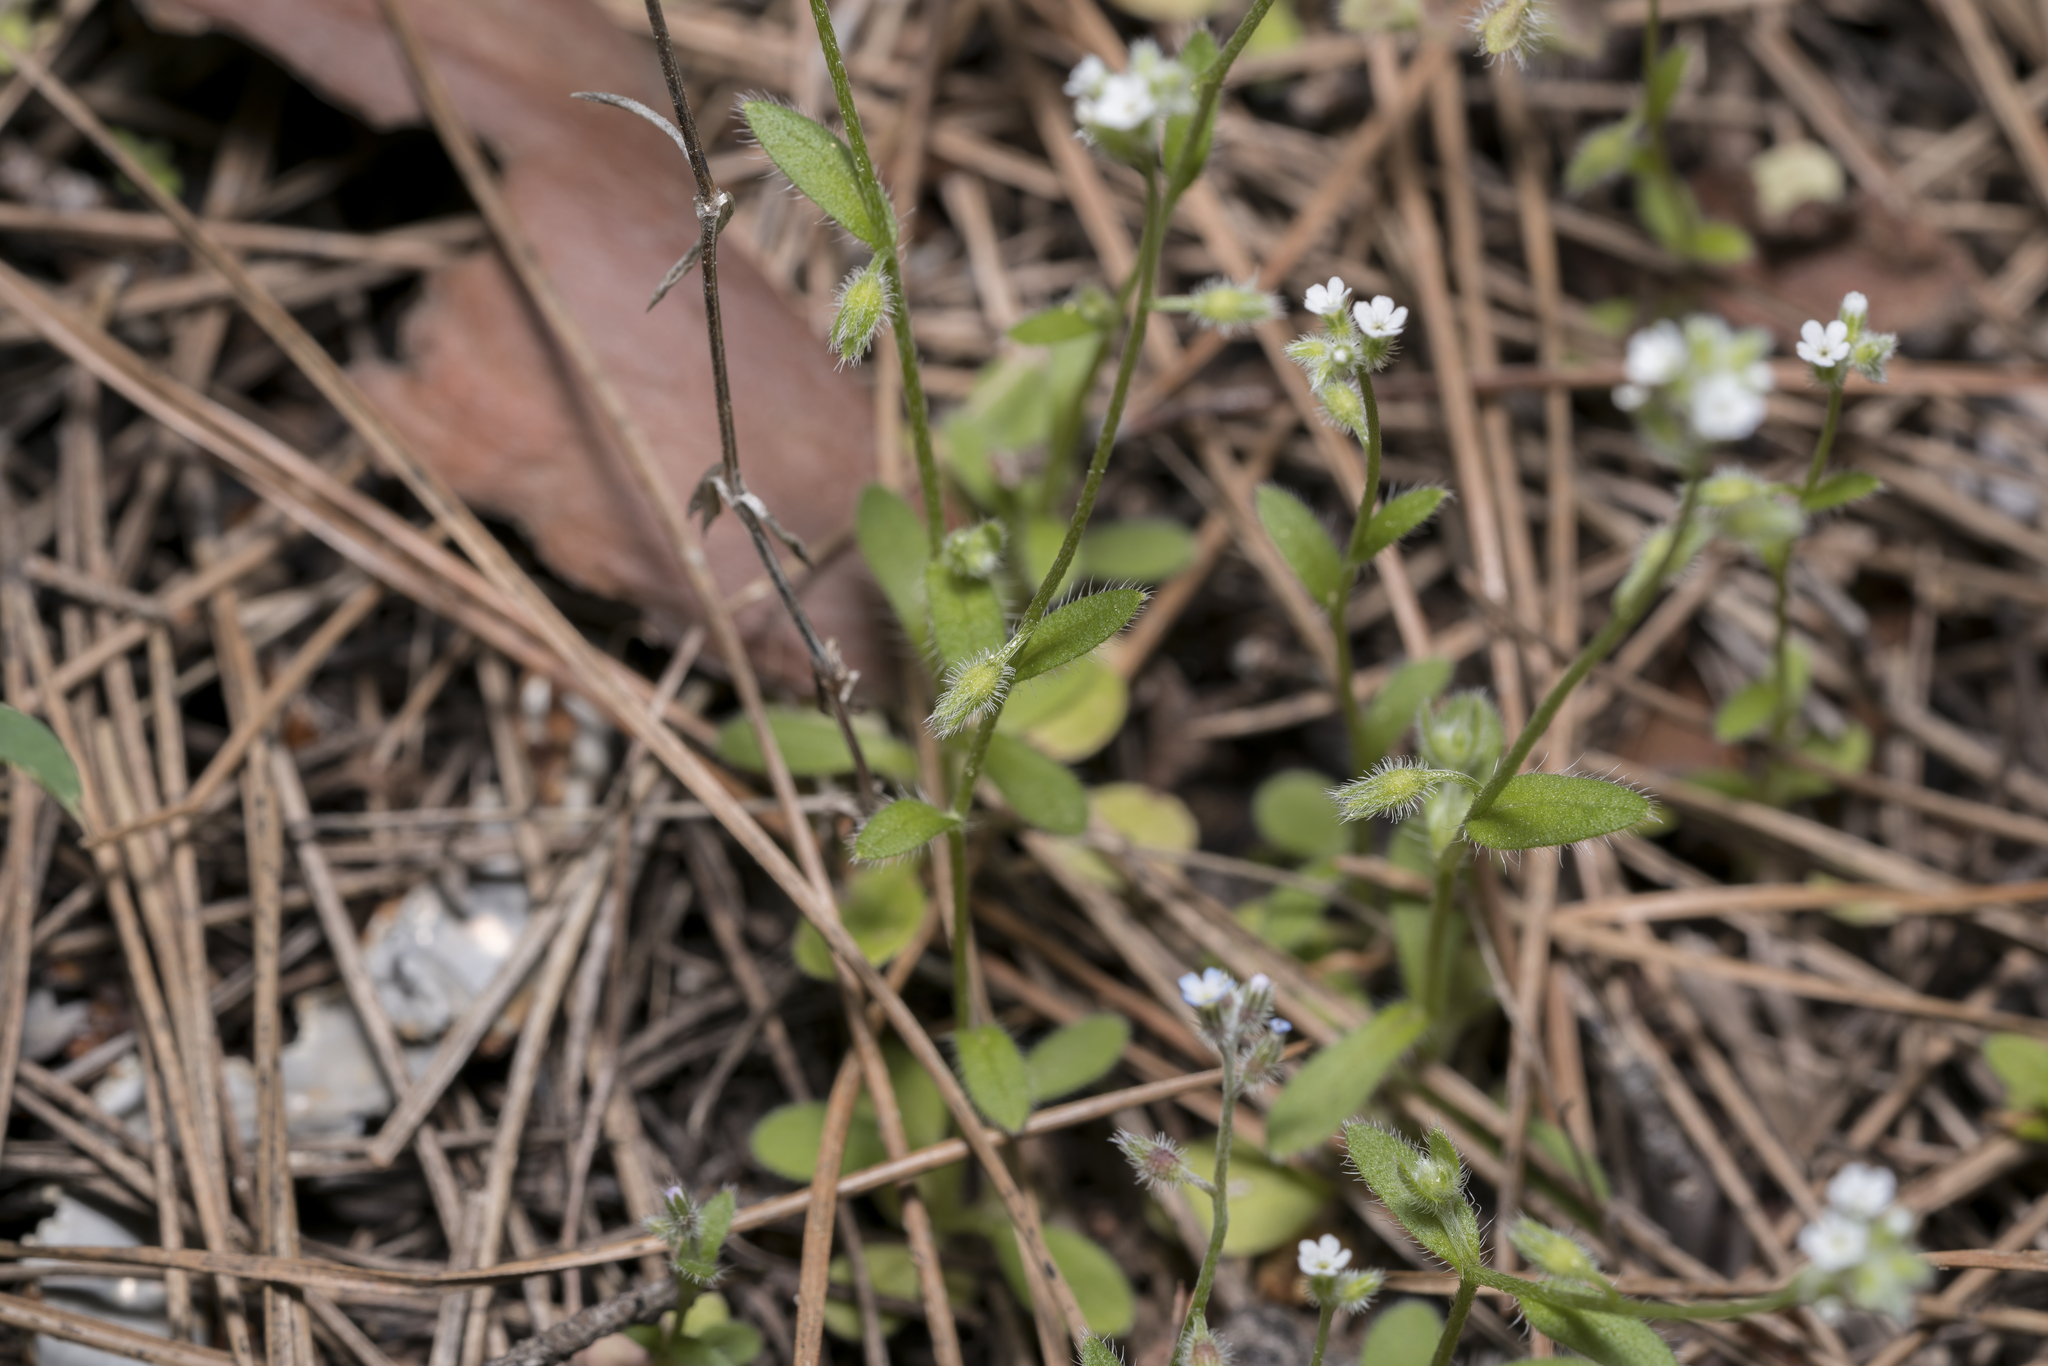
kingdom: Plantae
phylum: Tracheophyta
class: Magnoliopsida
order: Boraginales
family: Boraginaceae
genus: Myosotis
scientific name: Myosotis ramosissima
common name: Early forget-me-not
